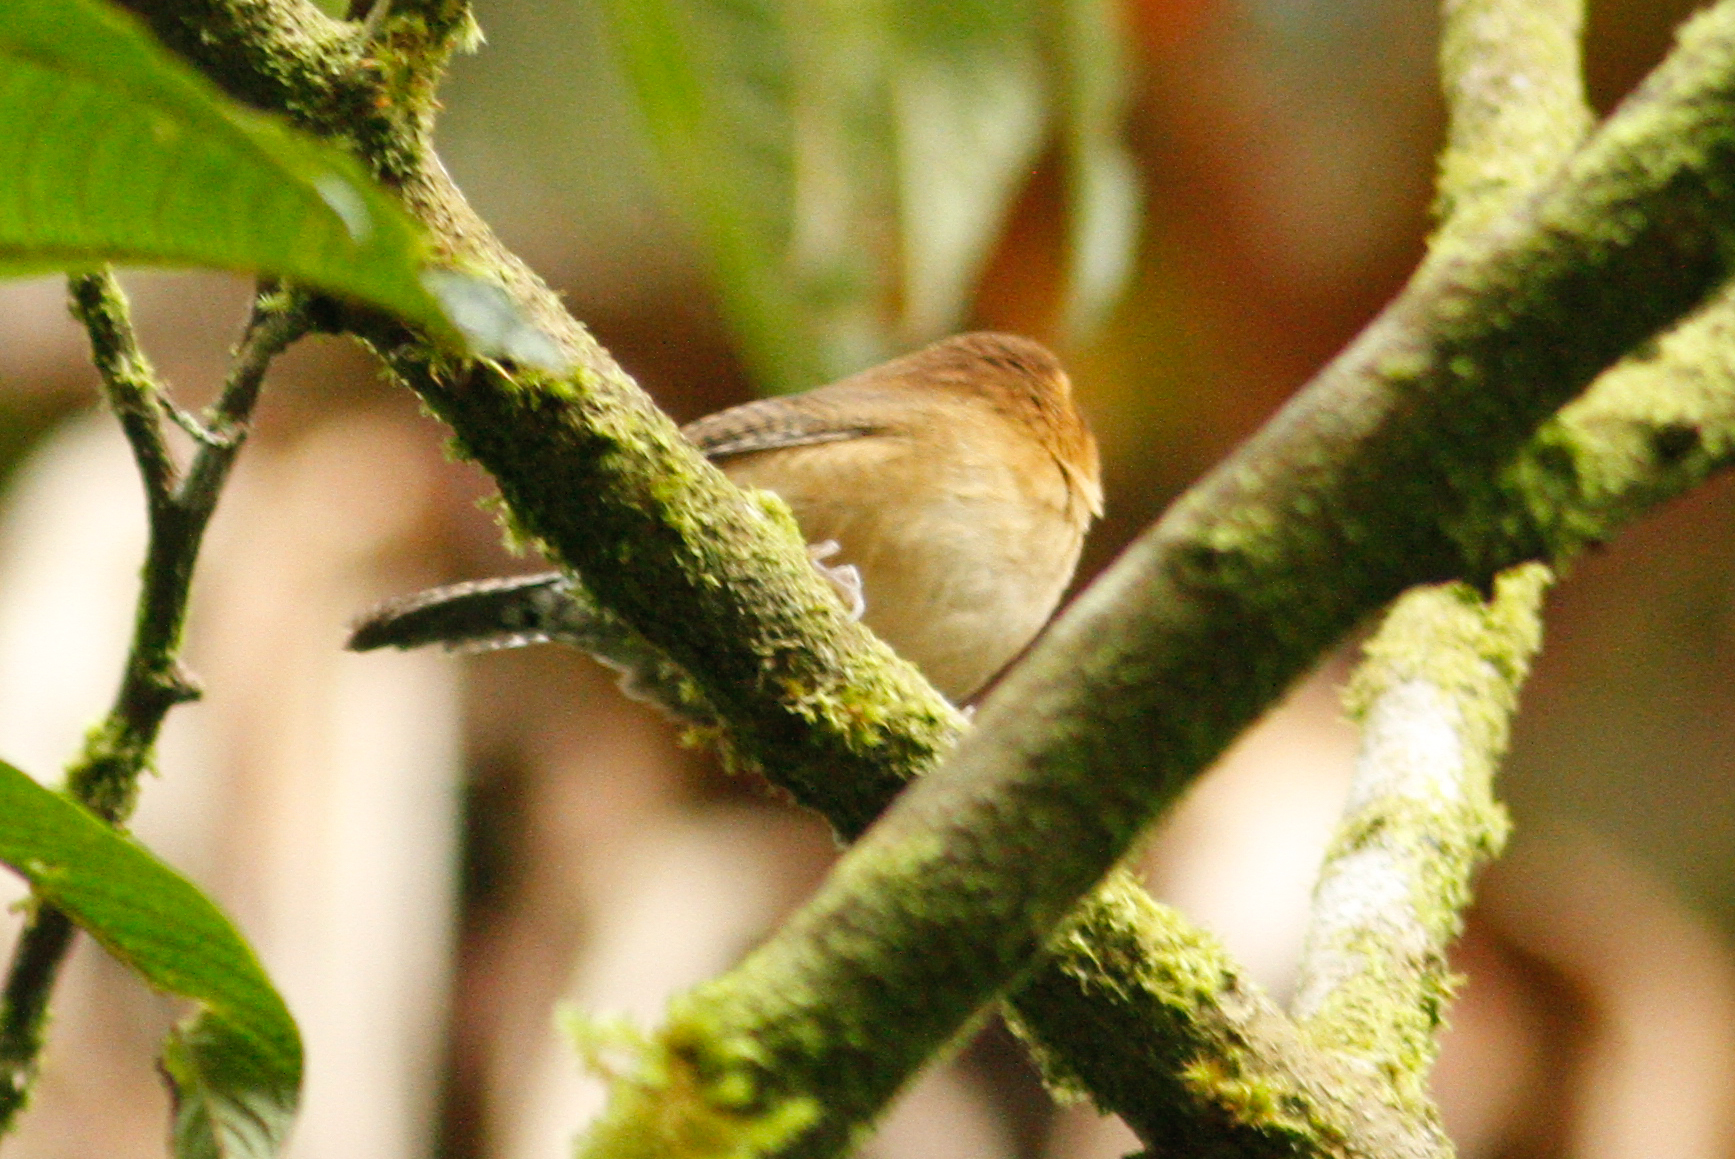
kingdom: Animalia
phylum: Chordata
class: Aves
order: Passeriformes
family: Troglodytidae
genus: Troglodytes
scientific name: Troglodytes solstitialis
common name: Mountain wren
